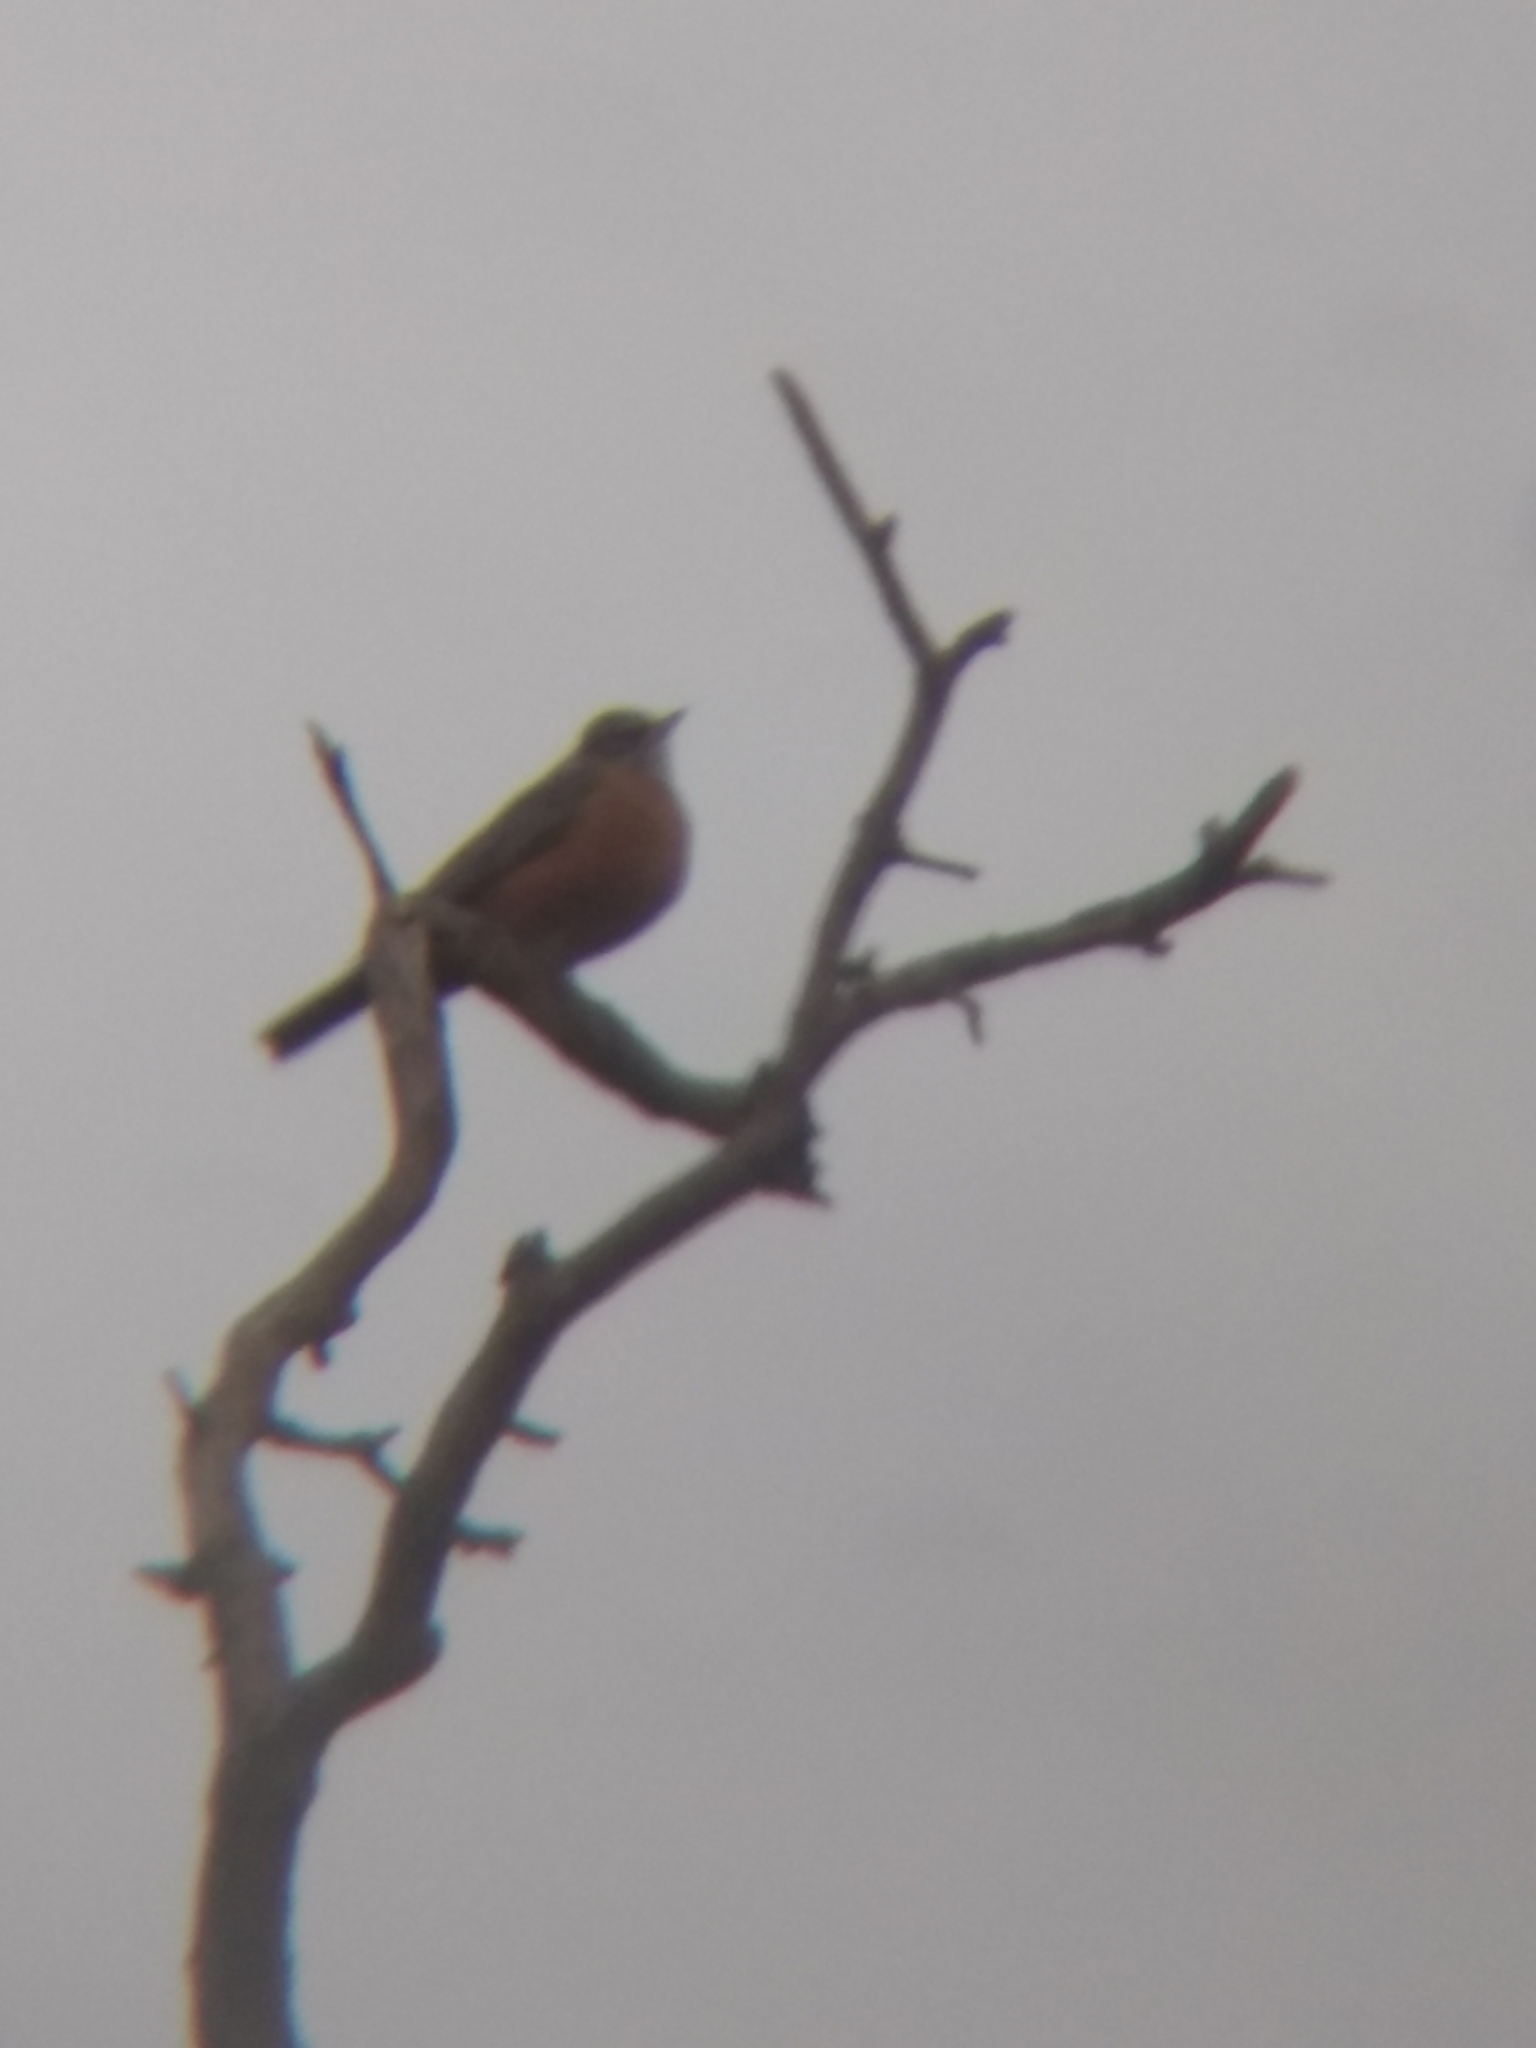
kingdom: Animalia
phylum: Chordata
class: Aves
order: Passeriformes
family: Turdidae
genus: Turdus
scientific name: Turdus migratorius
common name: American robin
